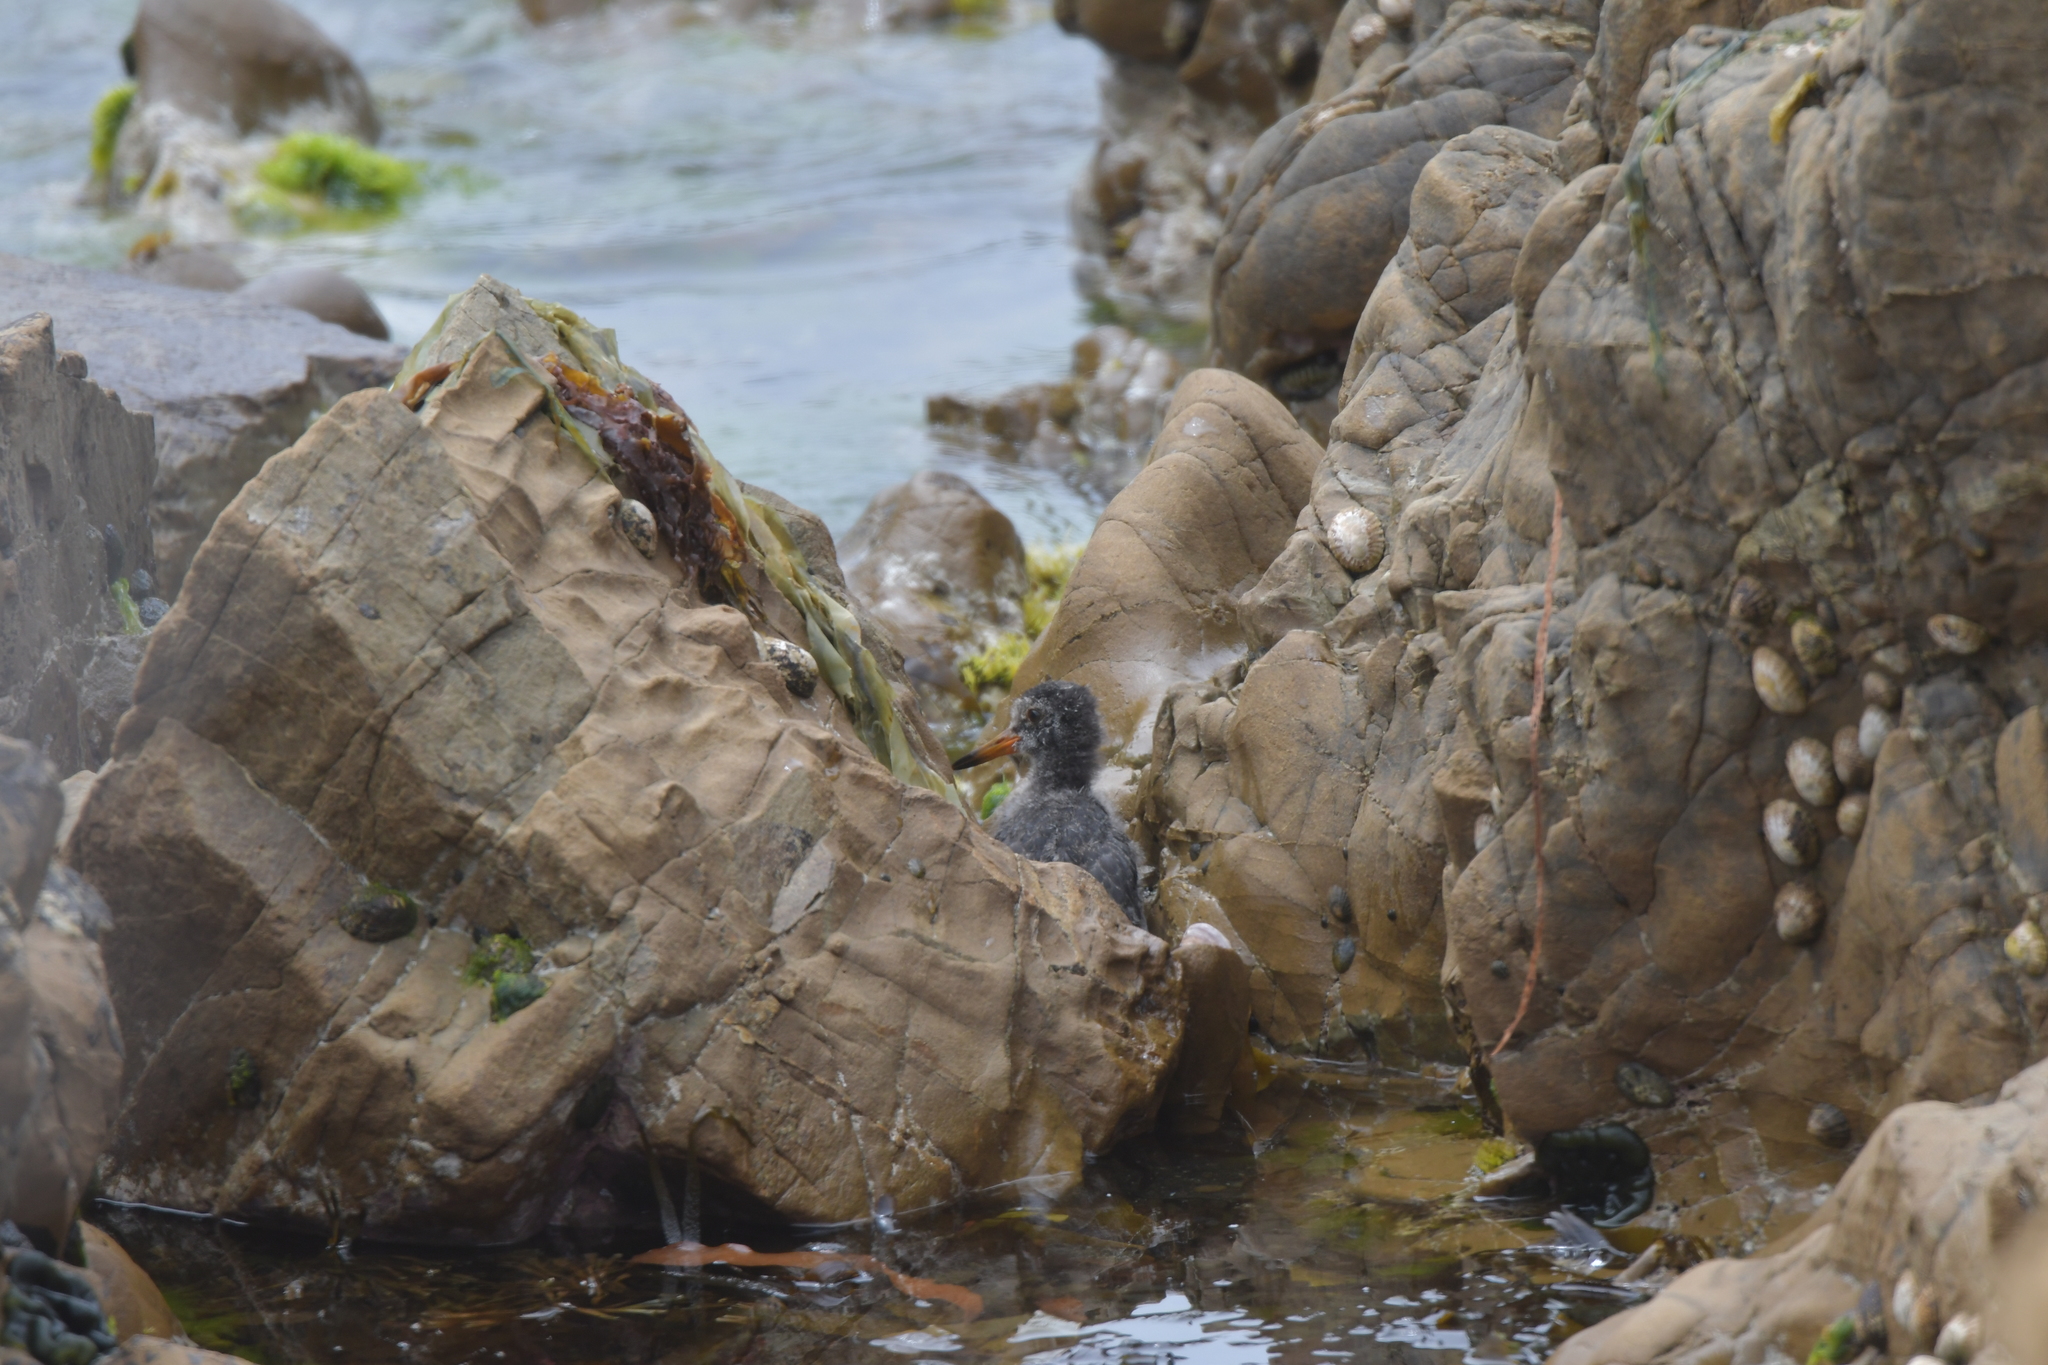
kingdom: Animalia
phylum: Chordata
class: Aves
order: Charadriiformes
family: Haematopodidae
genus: Haematopus
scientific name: Haematopus unicolor
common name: Variable oystercatcher
